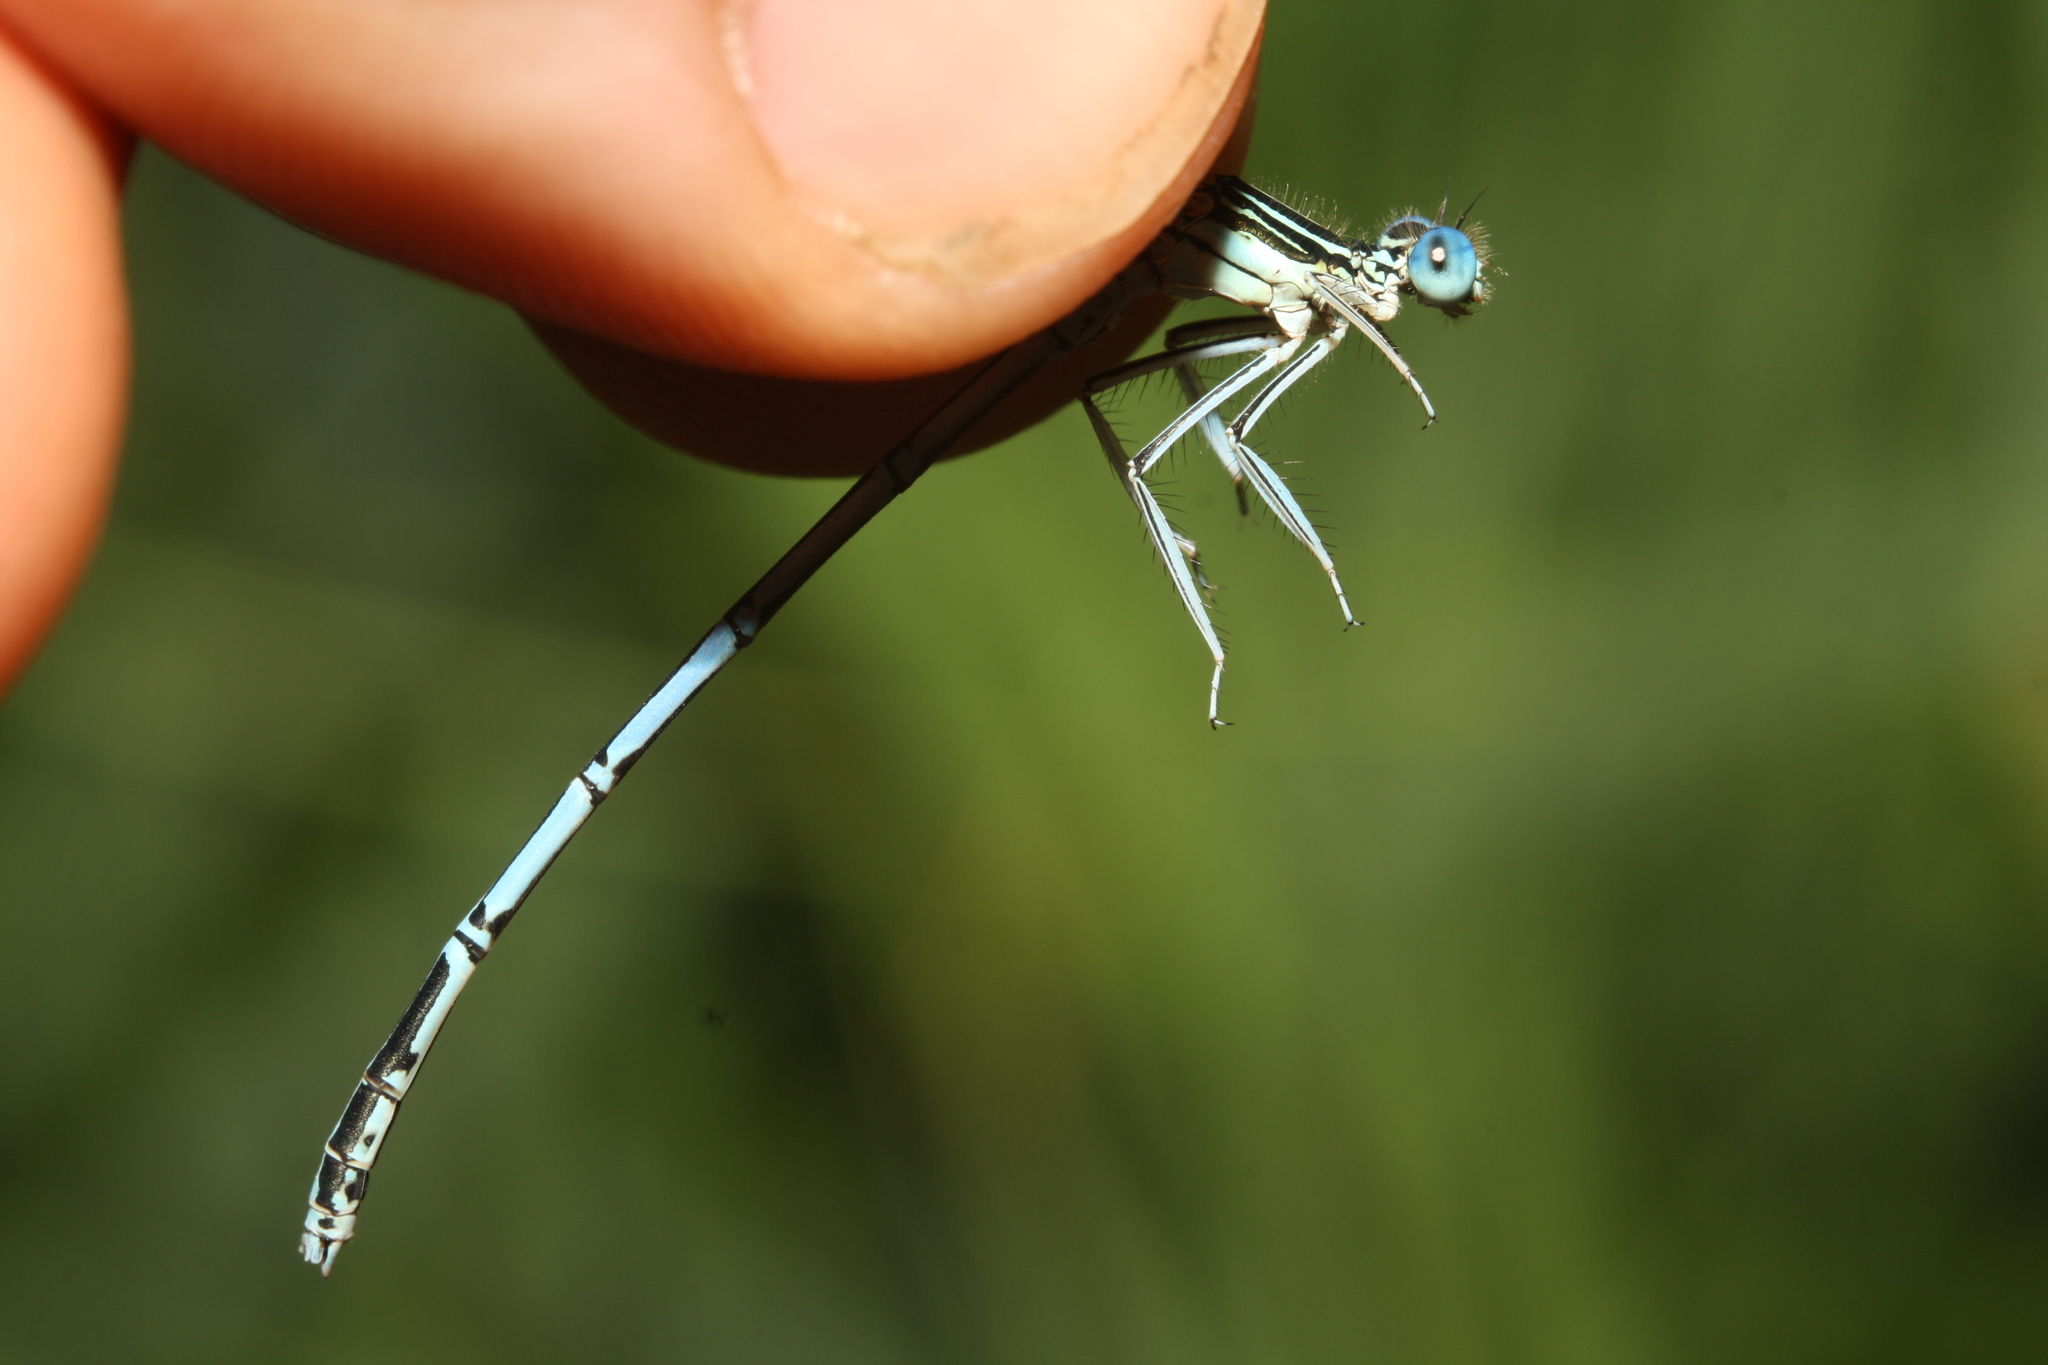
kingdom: Animalia
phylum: Arthropoda
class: Insecta
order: Odonata
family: Platycnemididae
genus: Platycnemis
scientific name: Platycnemis pennipes
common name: White-legged damselfly
